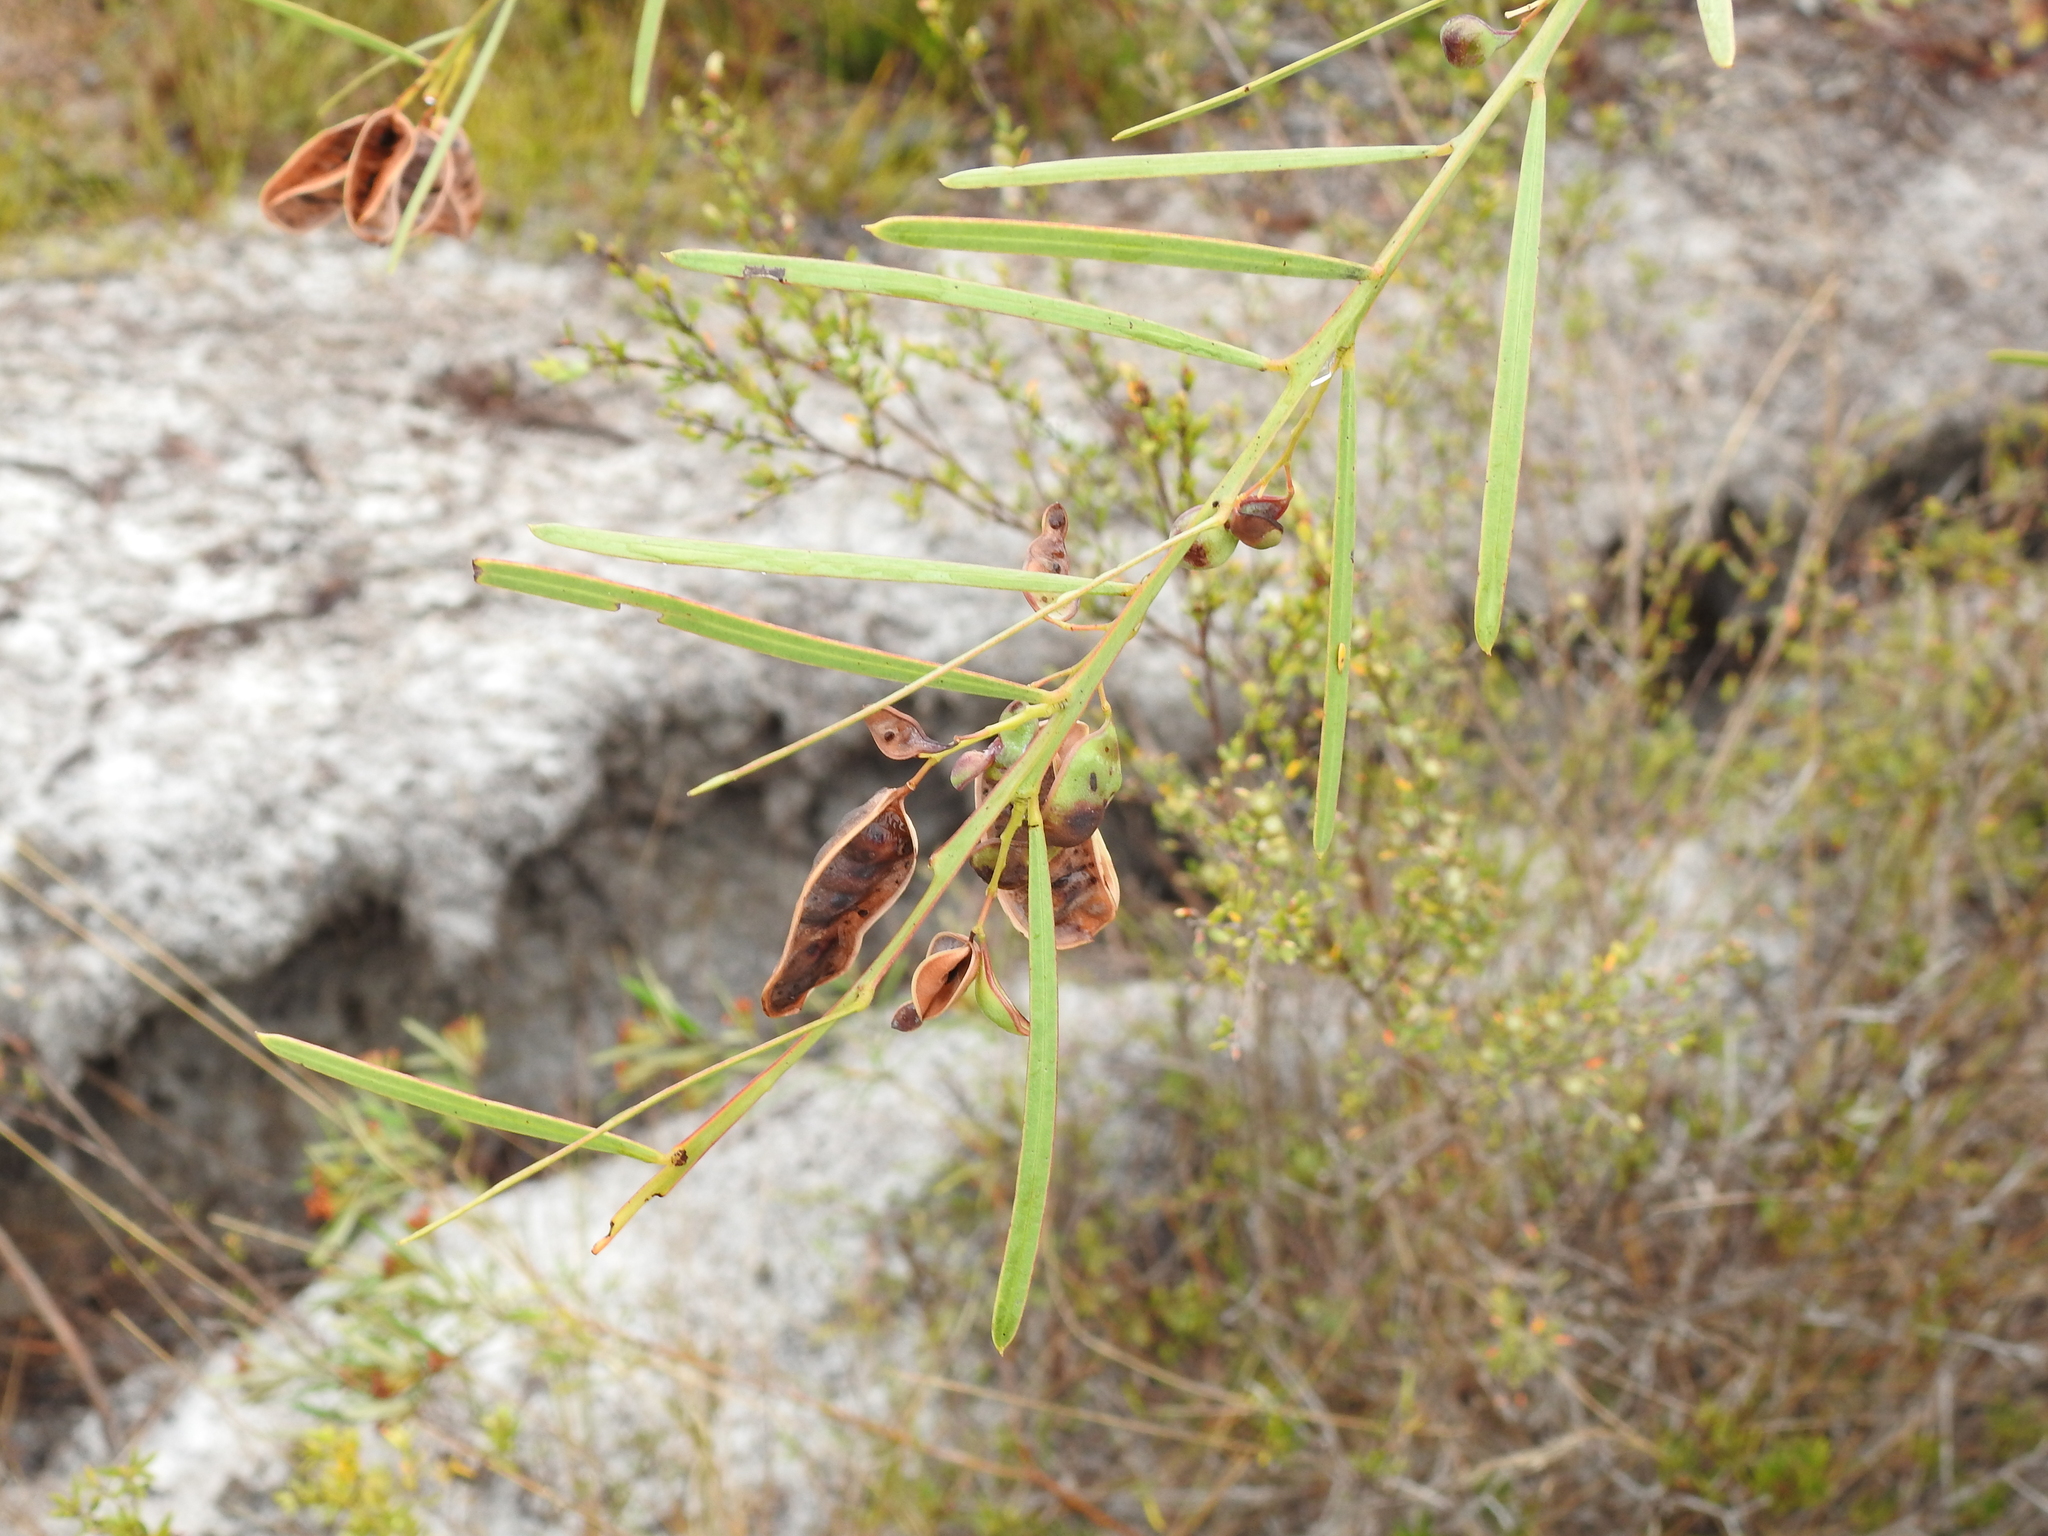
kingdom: Plantae
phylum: Tracheophyta
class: Magnoliopsida
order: Fabales
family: Fabaceae
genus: Acacia
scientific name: Acacia suaveolens
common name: Sweet acacia
